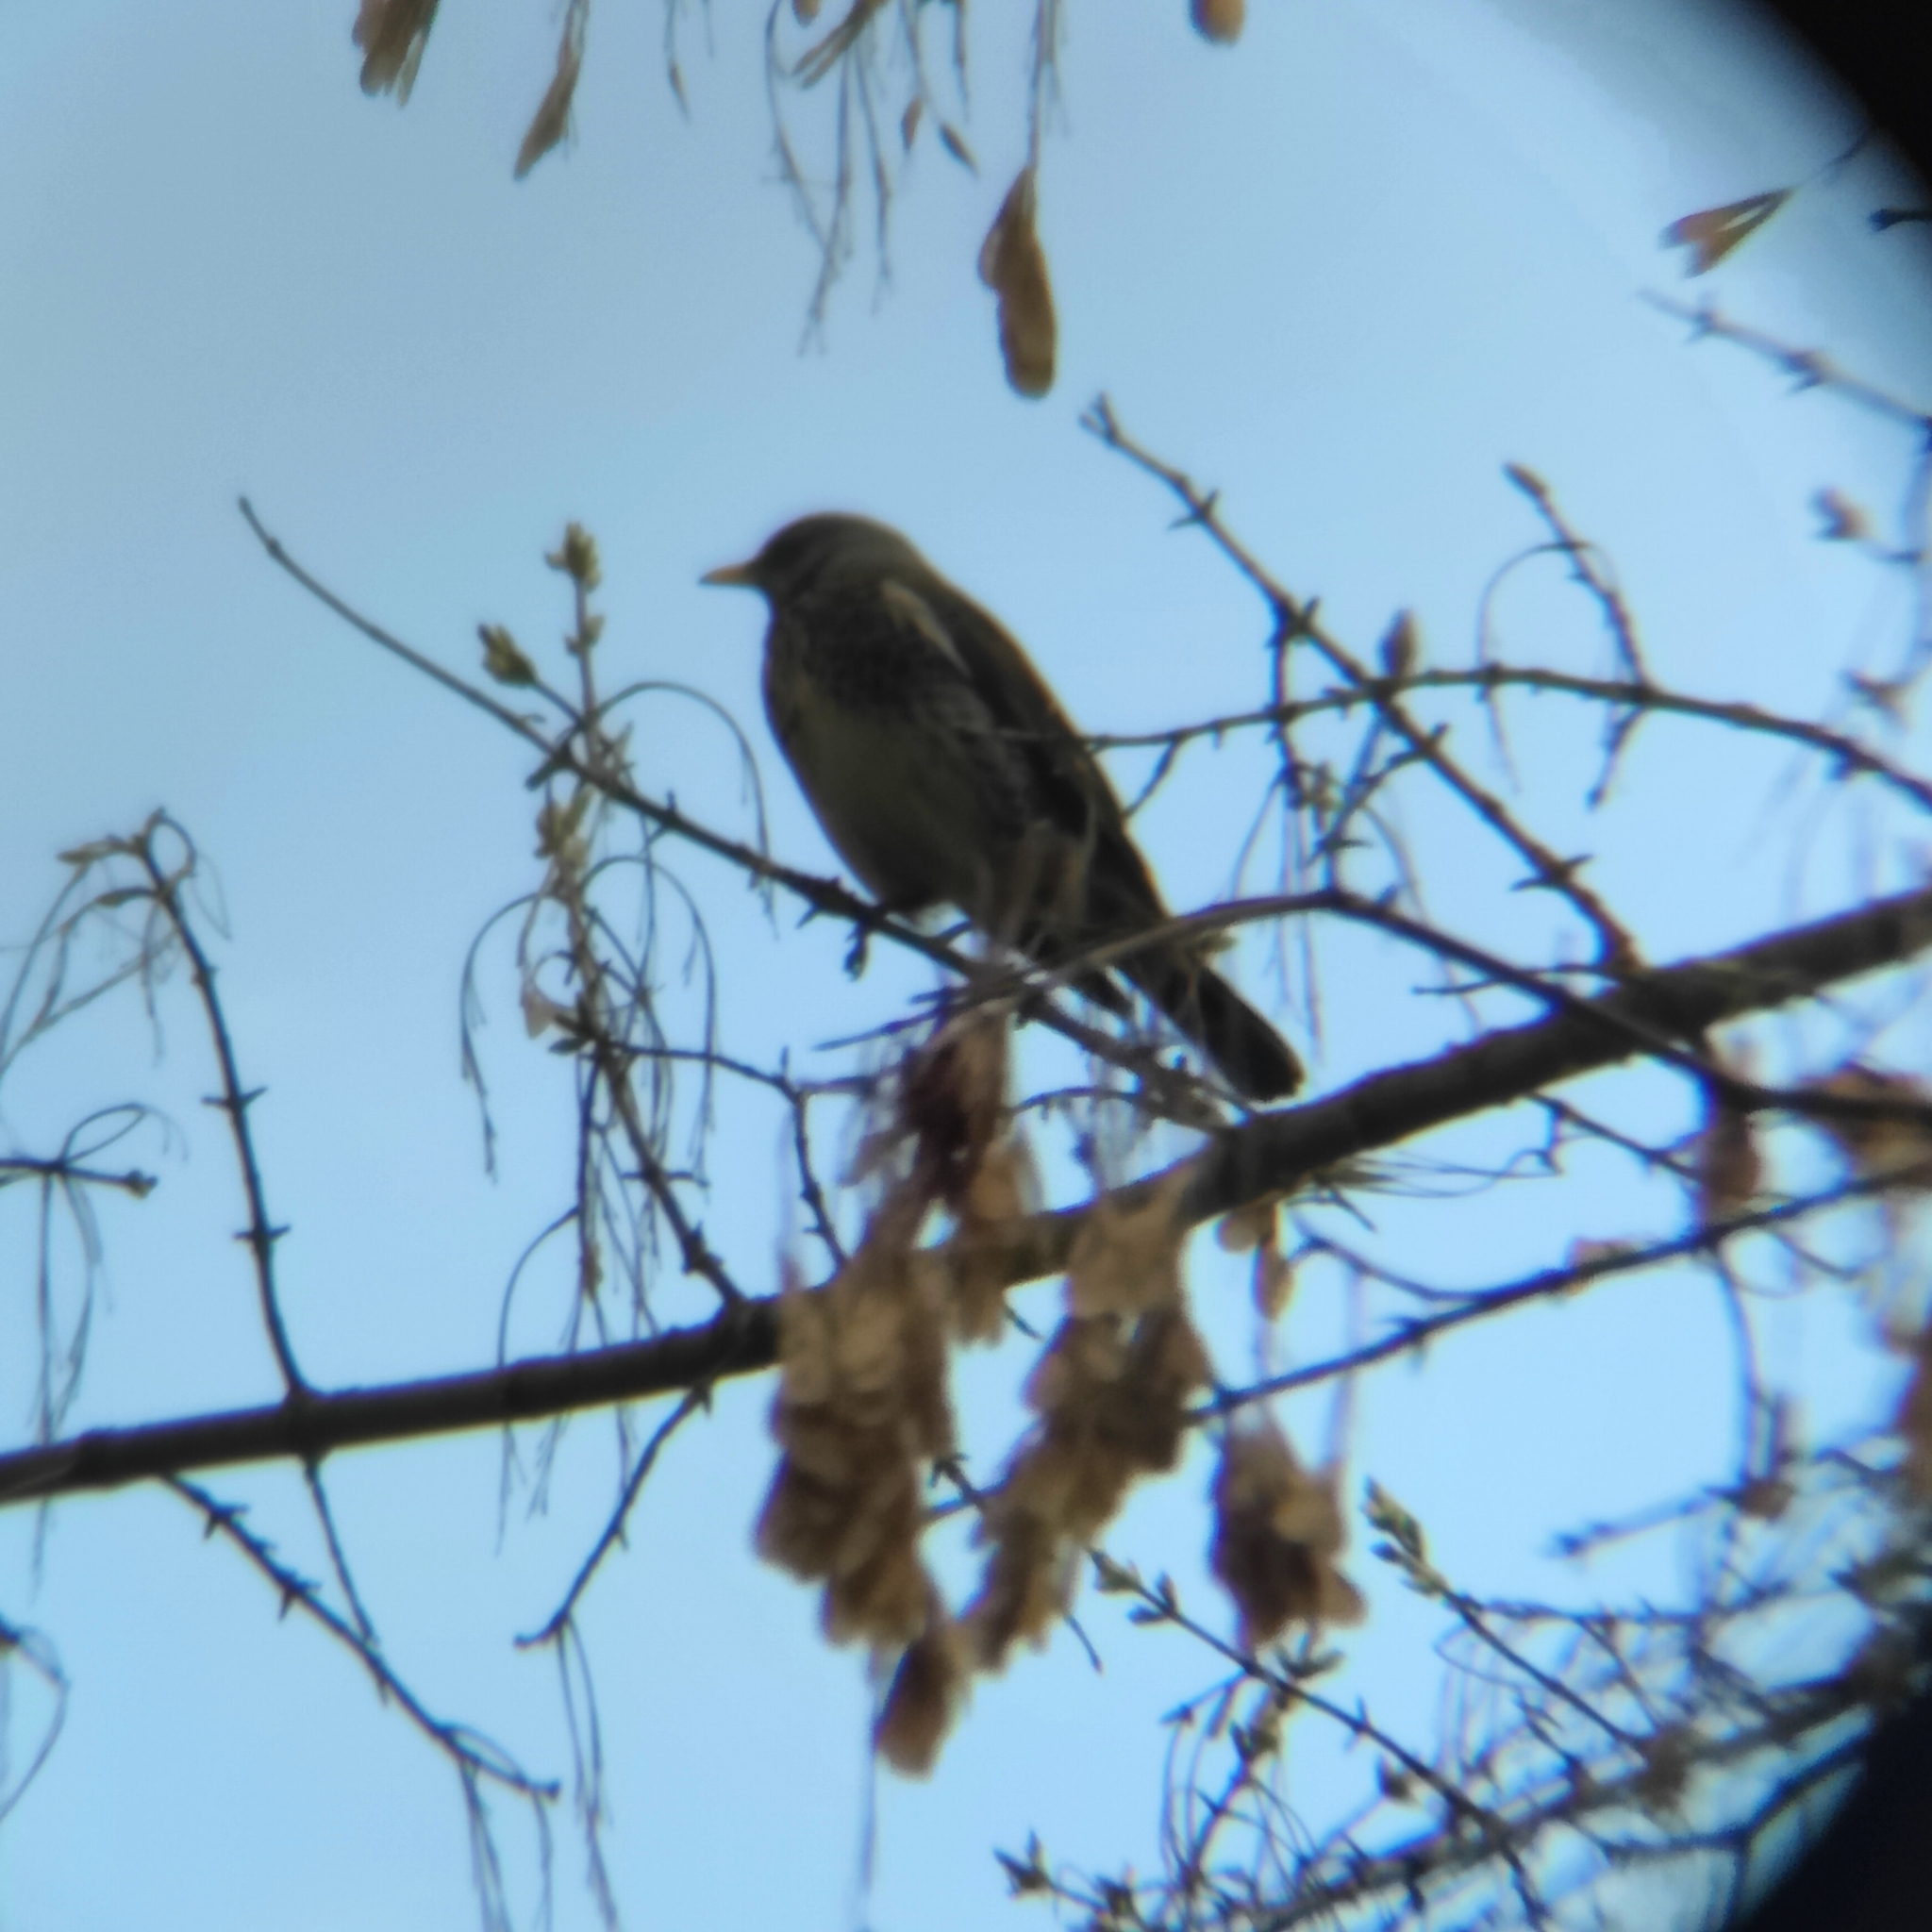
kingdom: Animalia
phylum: Chordata
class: Aves
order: Passeriformes
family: Turdidae
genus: Turdus
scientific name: Turdus pilaris
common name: Fieldfare
